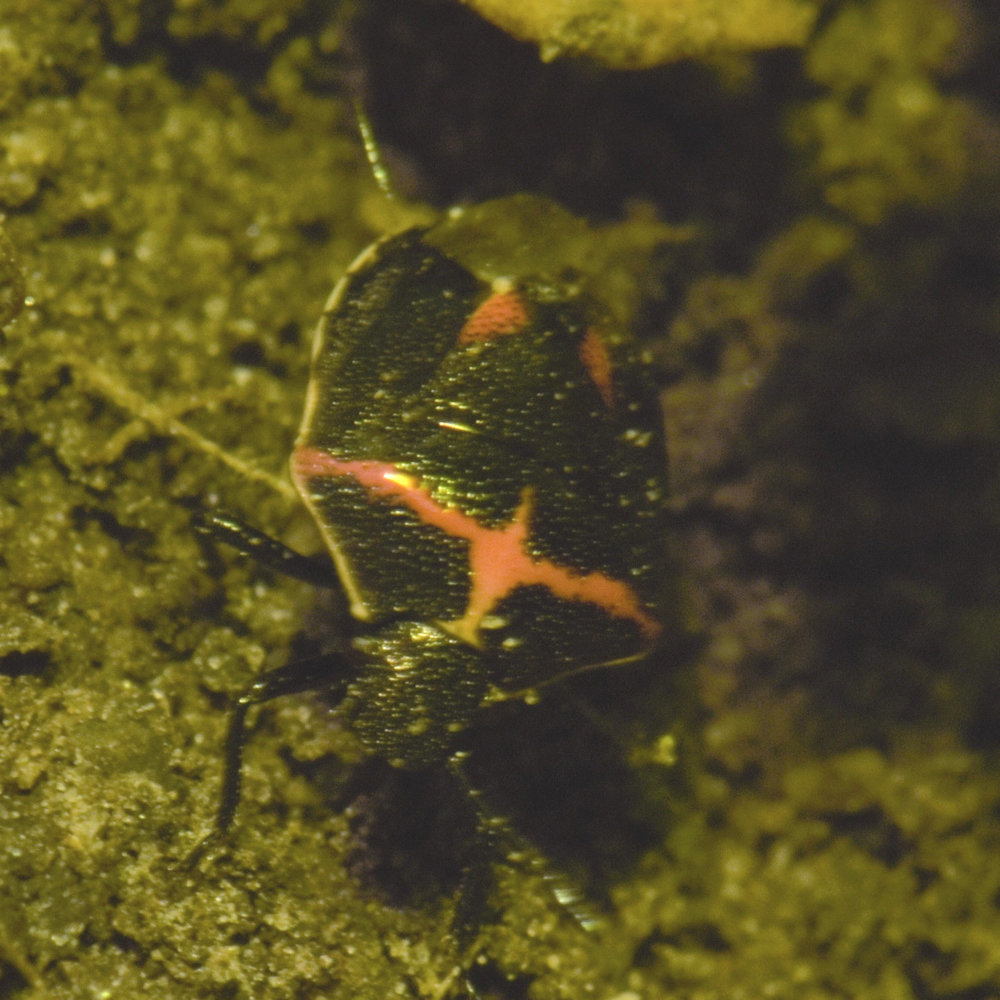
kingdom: Animalia
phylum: Arthropoda
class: Insecta
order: Hemiptera
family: Pentatomidae
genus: Cosmopepla
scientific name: Cosmopepla lintneriana
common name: Twice-stabbed stink bug
